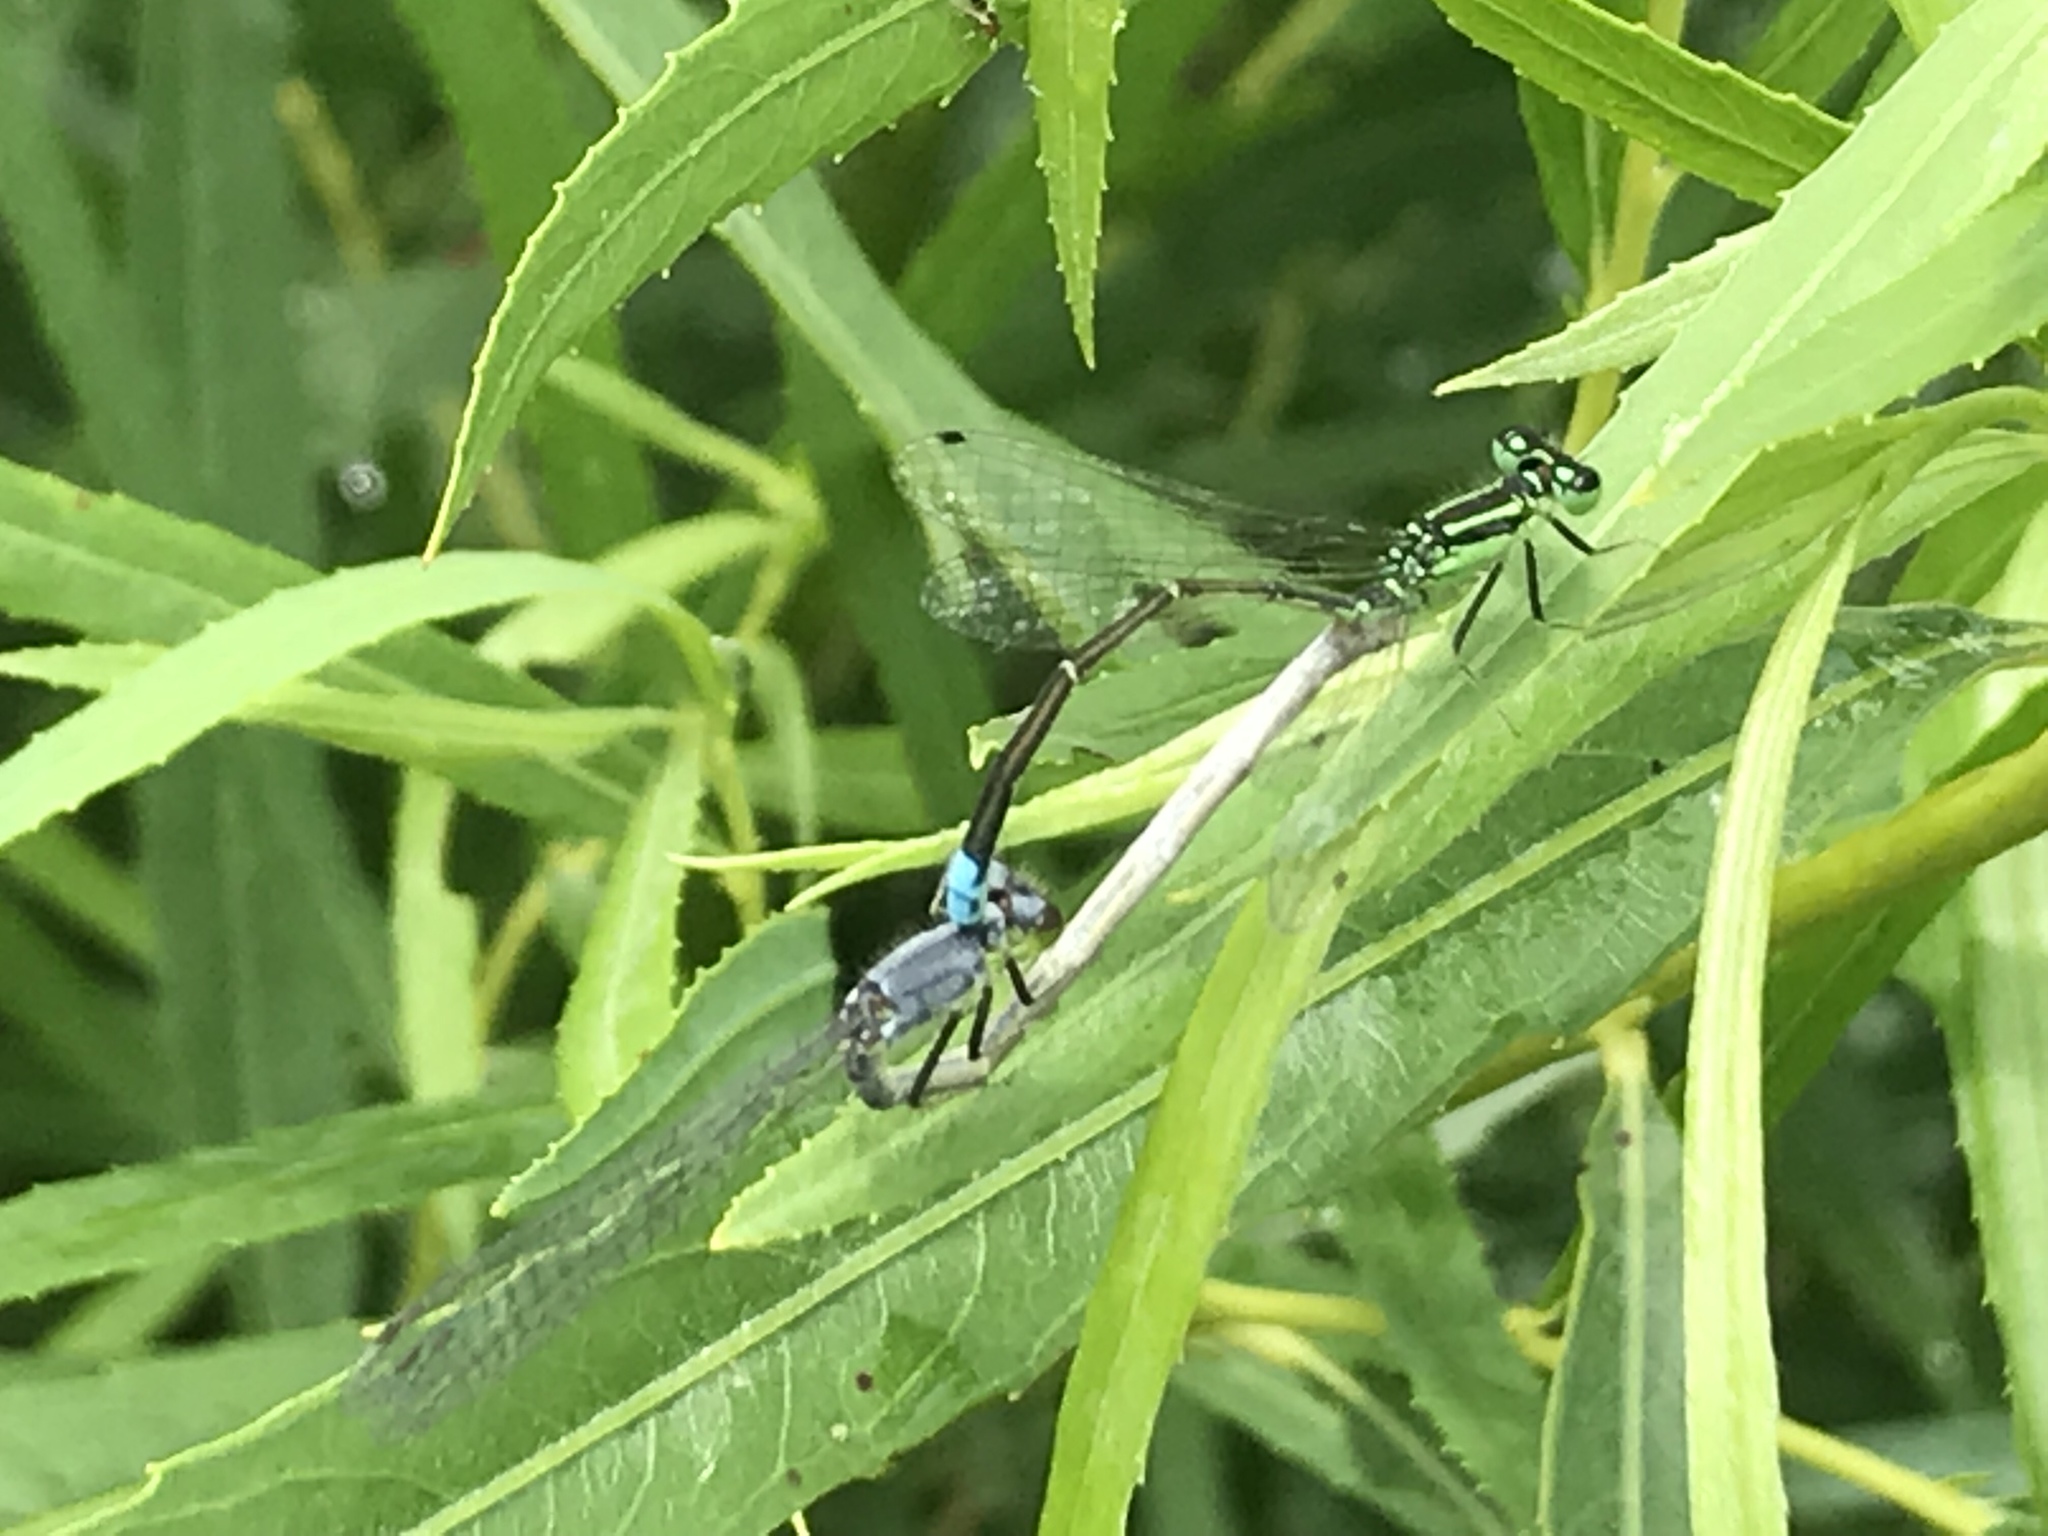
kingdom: Animalia
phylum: Arthropoda
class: Insecta
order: Odonata
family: Coenagrionidae
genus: Ischnura
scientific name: Ischnura verticalis
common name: Eastern forktail
